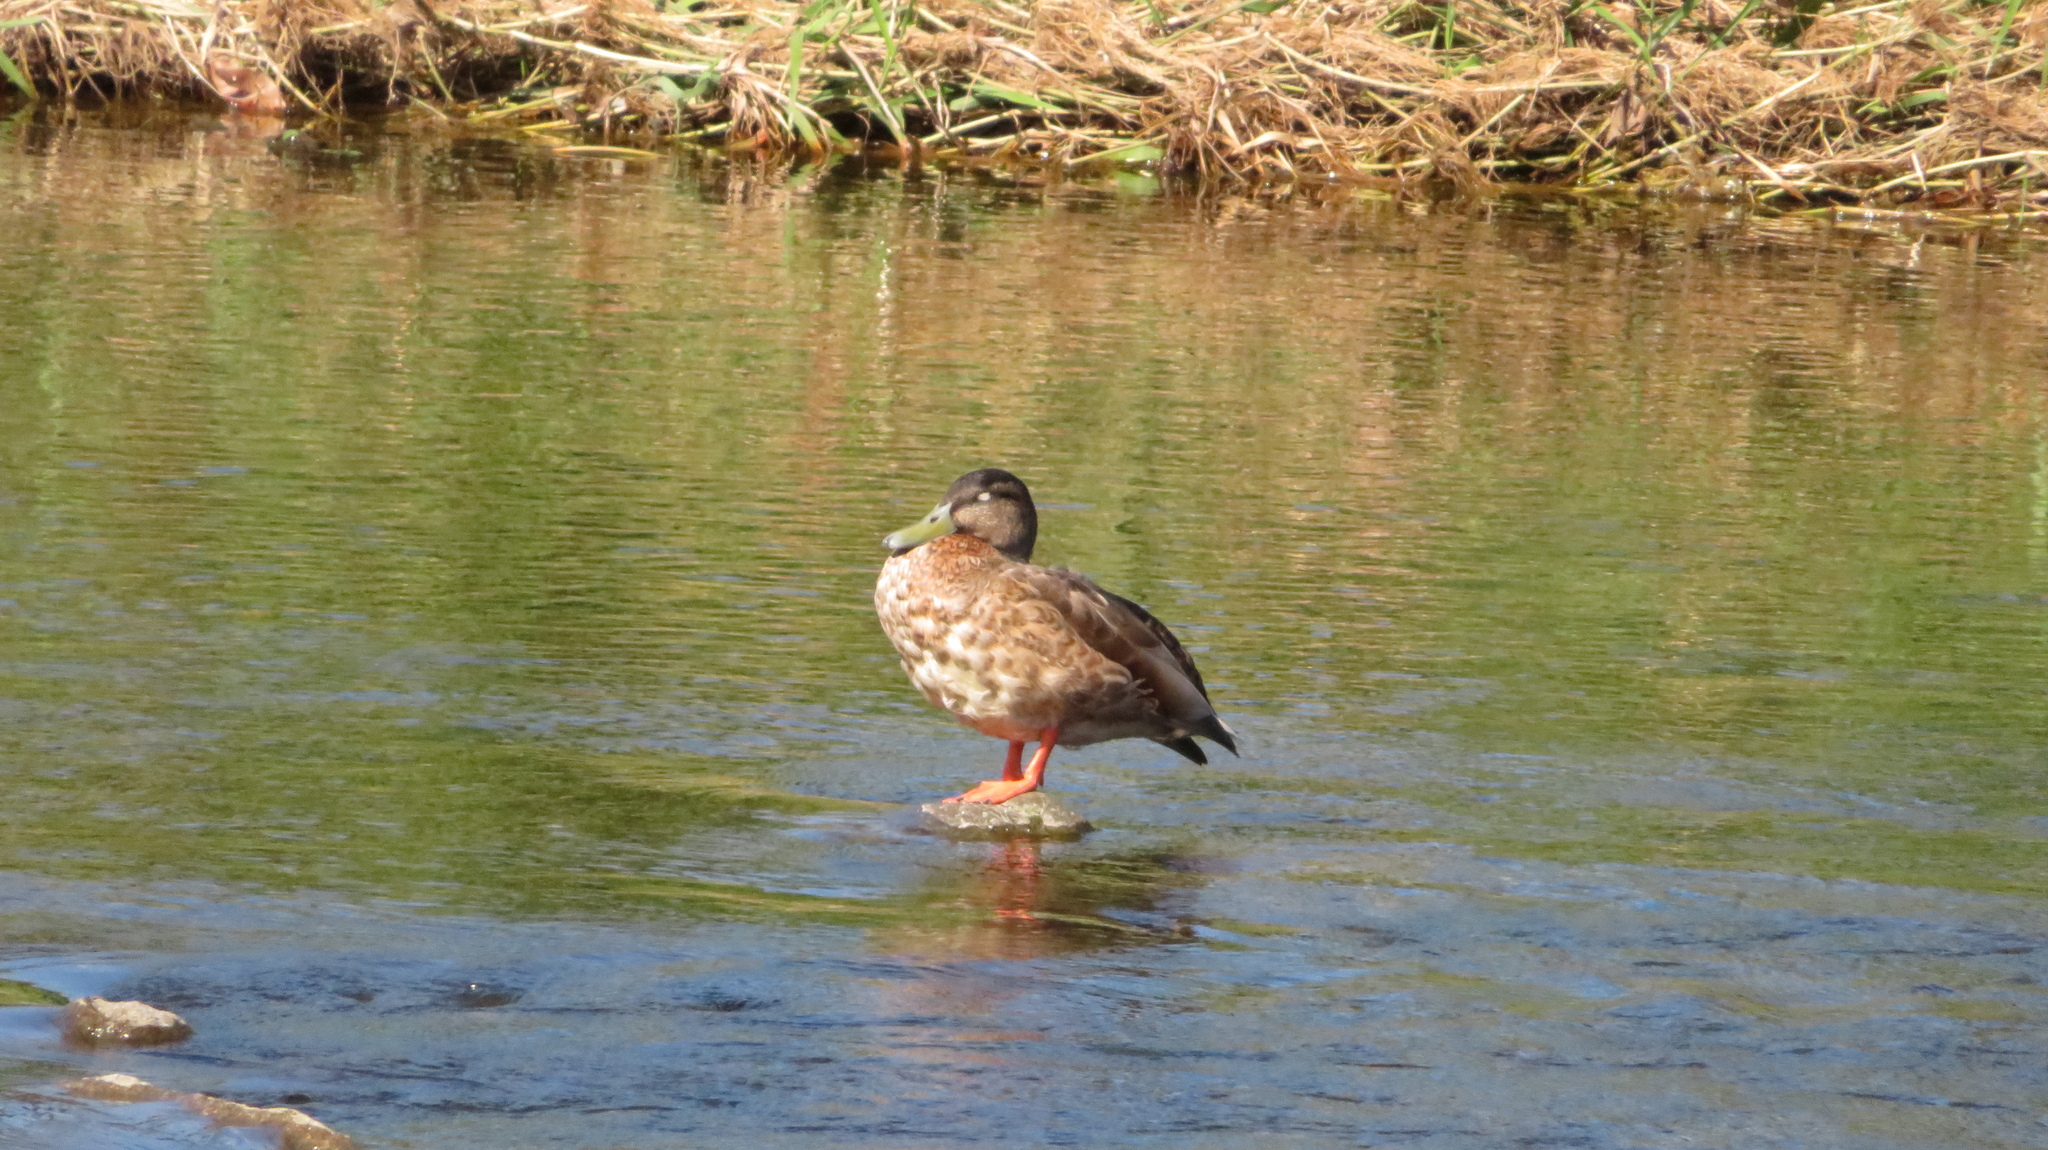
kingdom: Animalia
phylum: Chordata
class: Aves
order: Anseriformes
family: Anatidae
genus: Anas
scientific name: Anas
